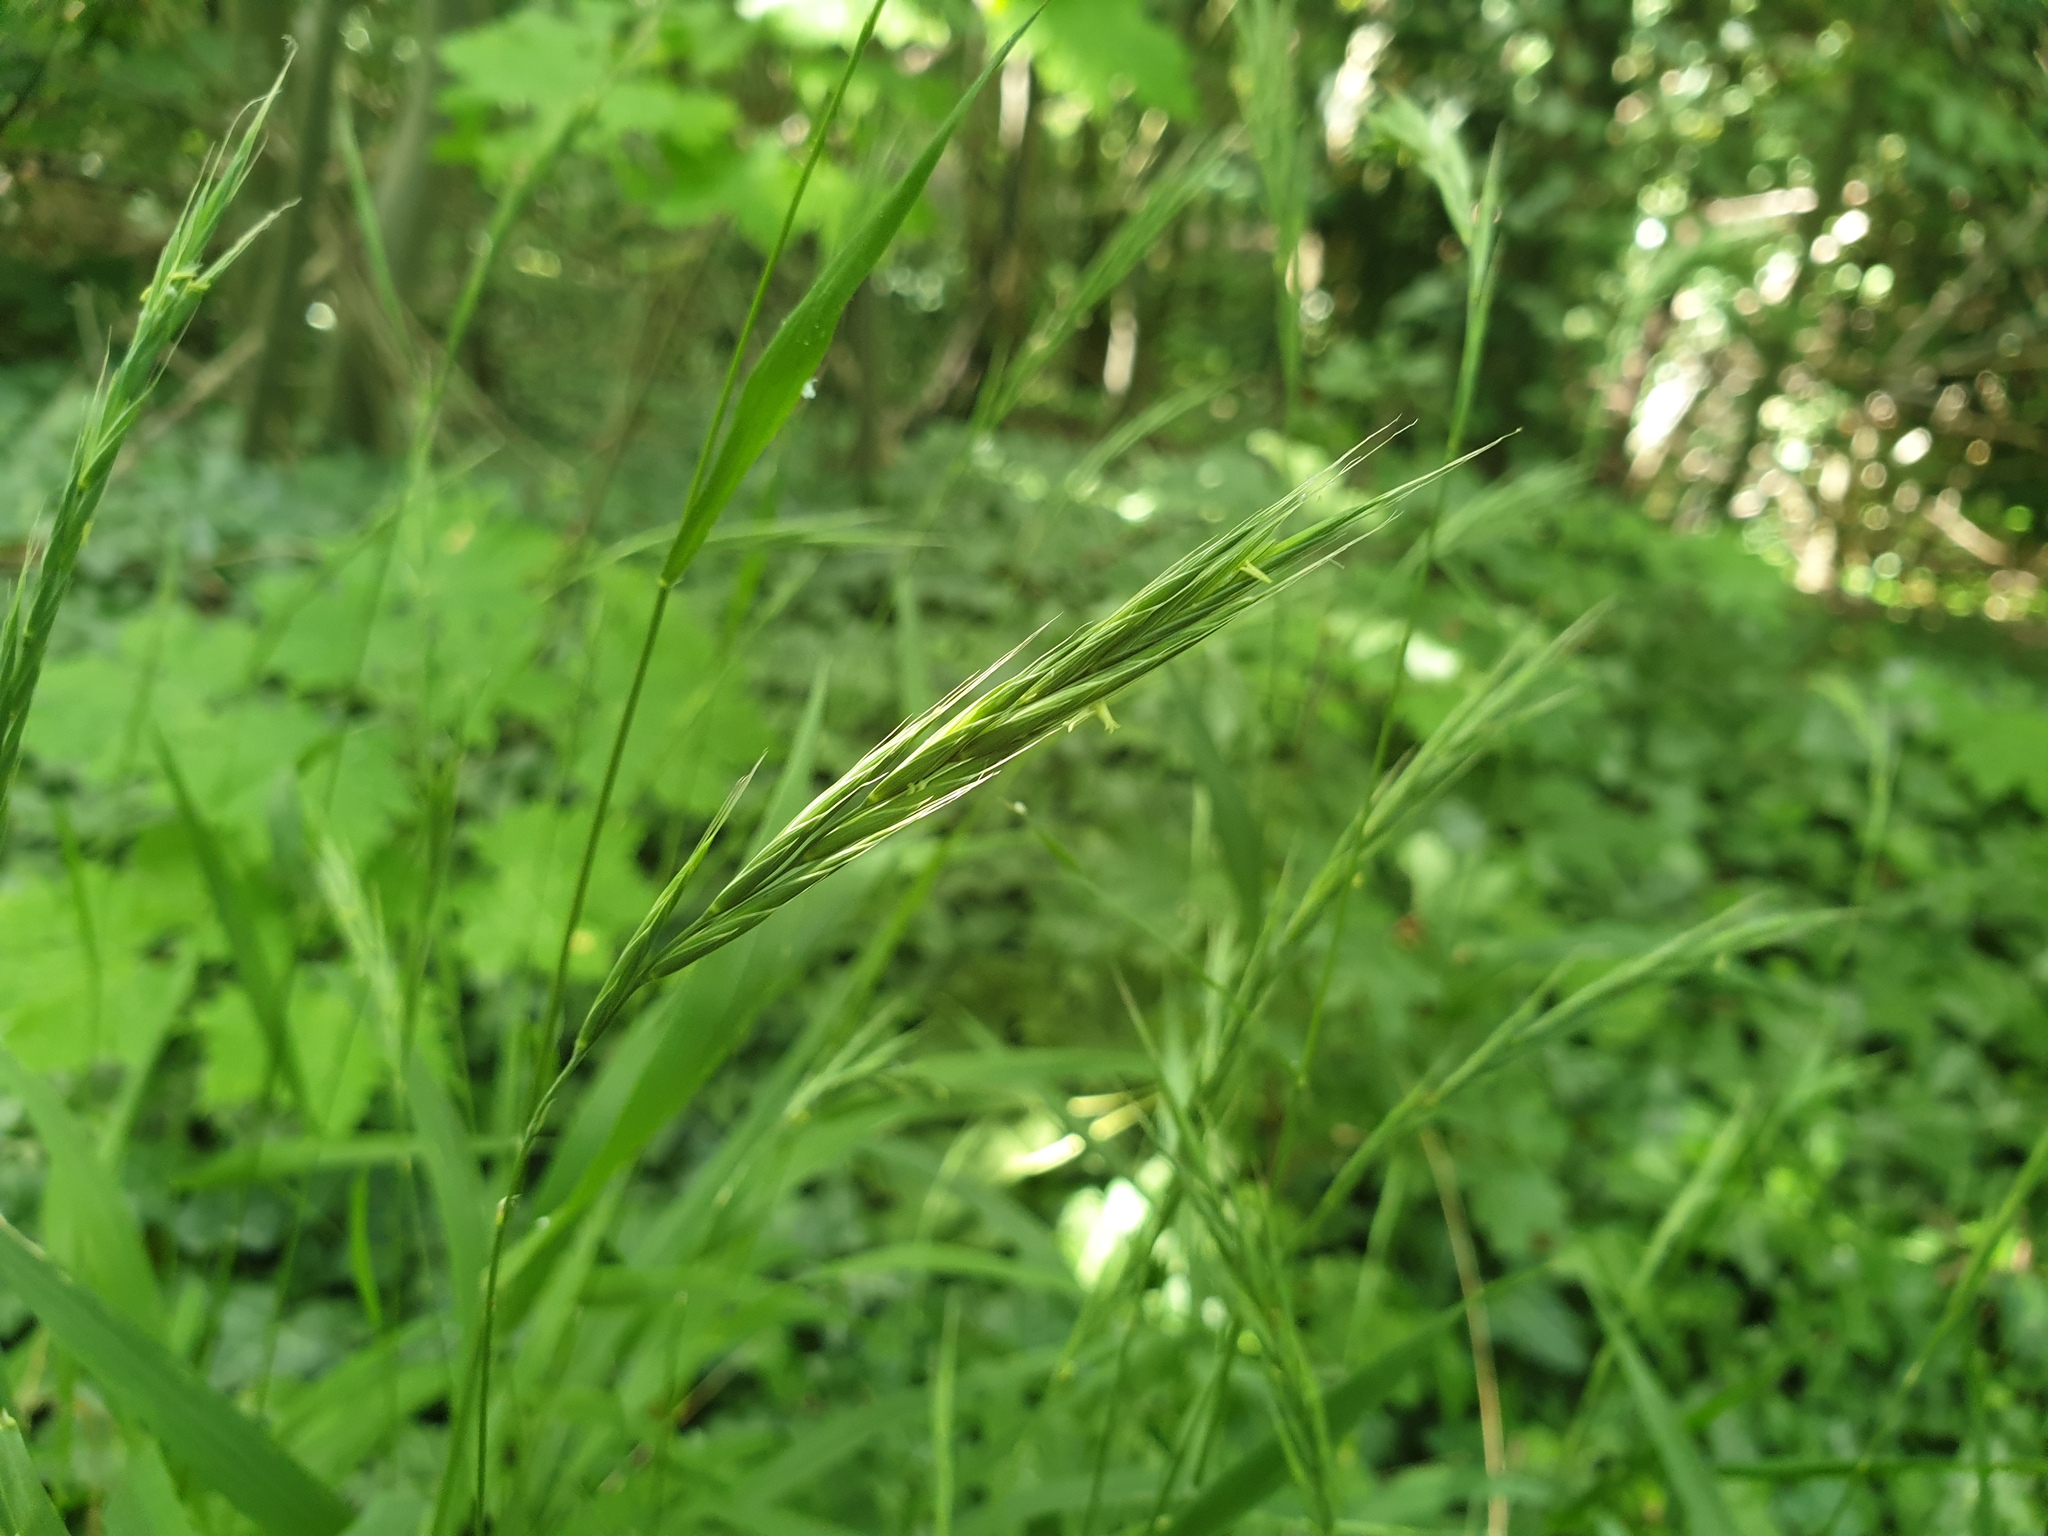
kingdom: Plantae
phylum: Tracheophyta
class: Liliopsida
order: Poales
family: Poaceae
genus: Brachypodium
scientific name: Brachypodium sylvaticum
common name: False-brome
